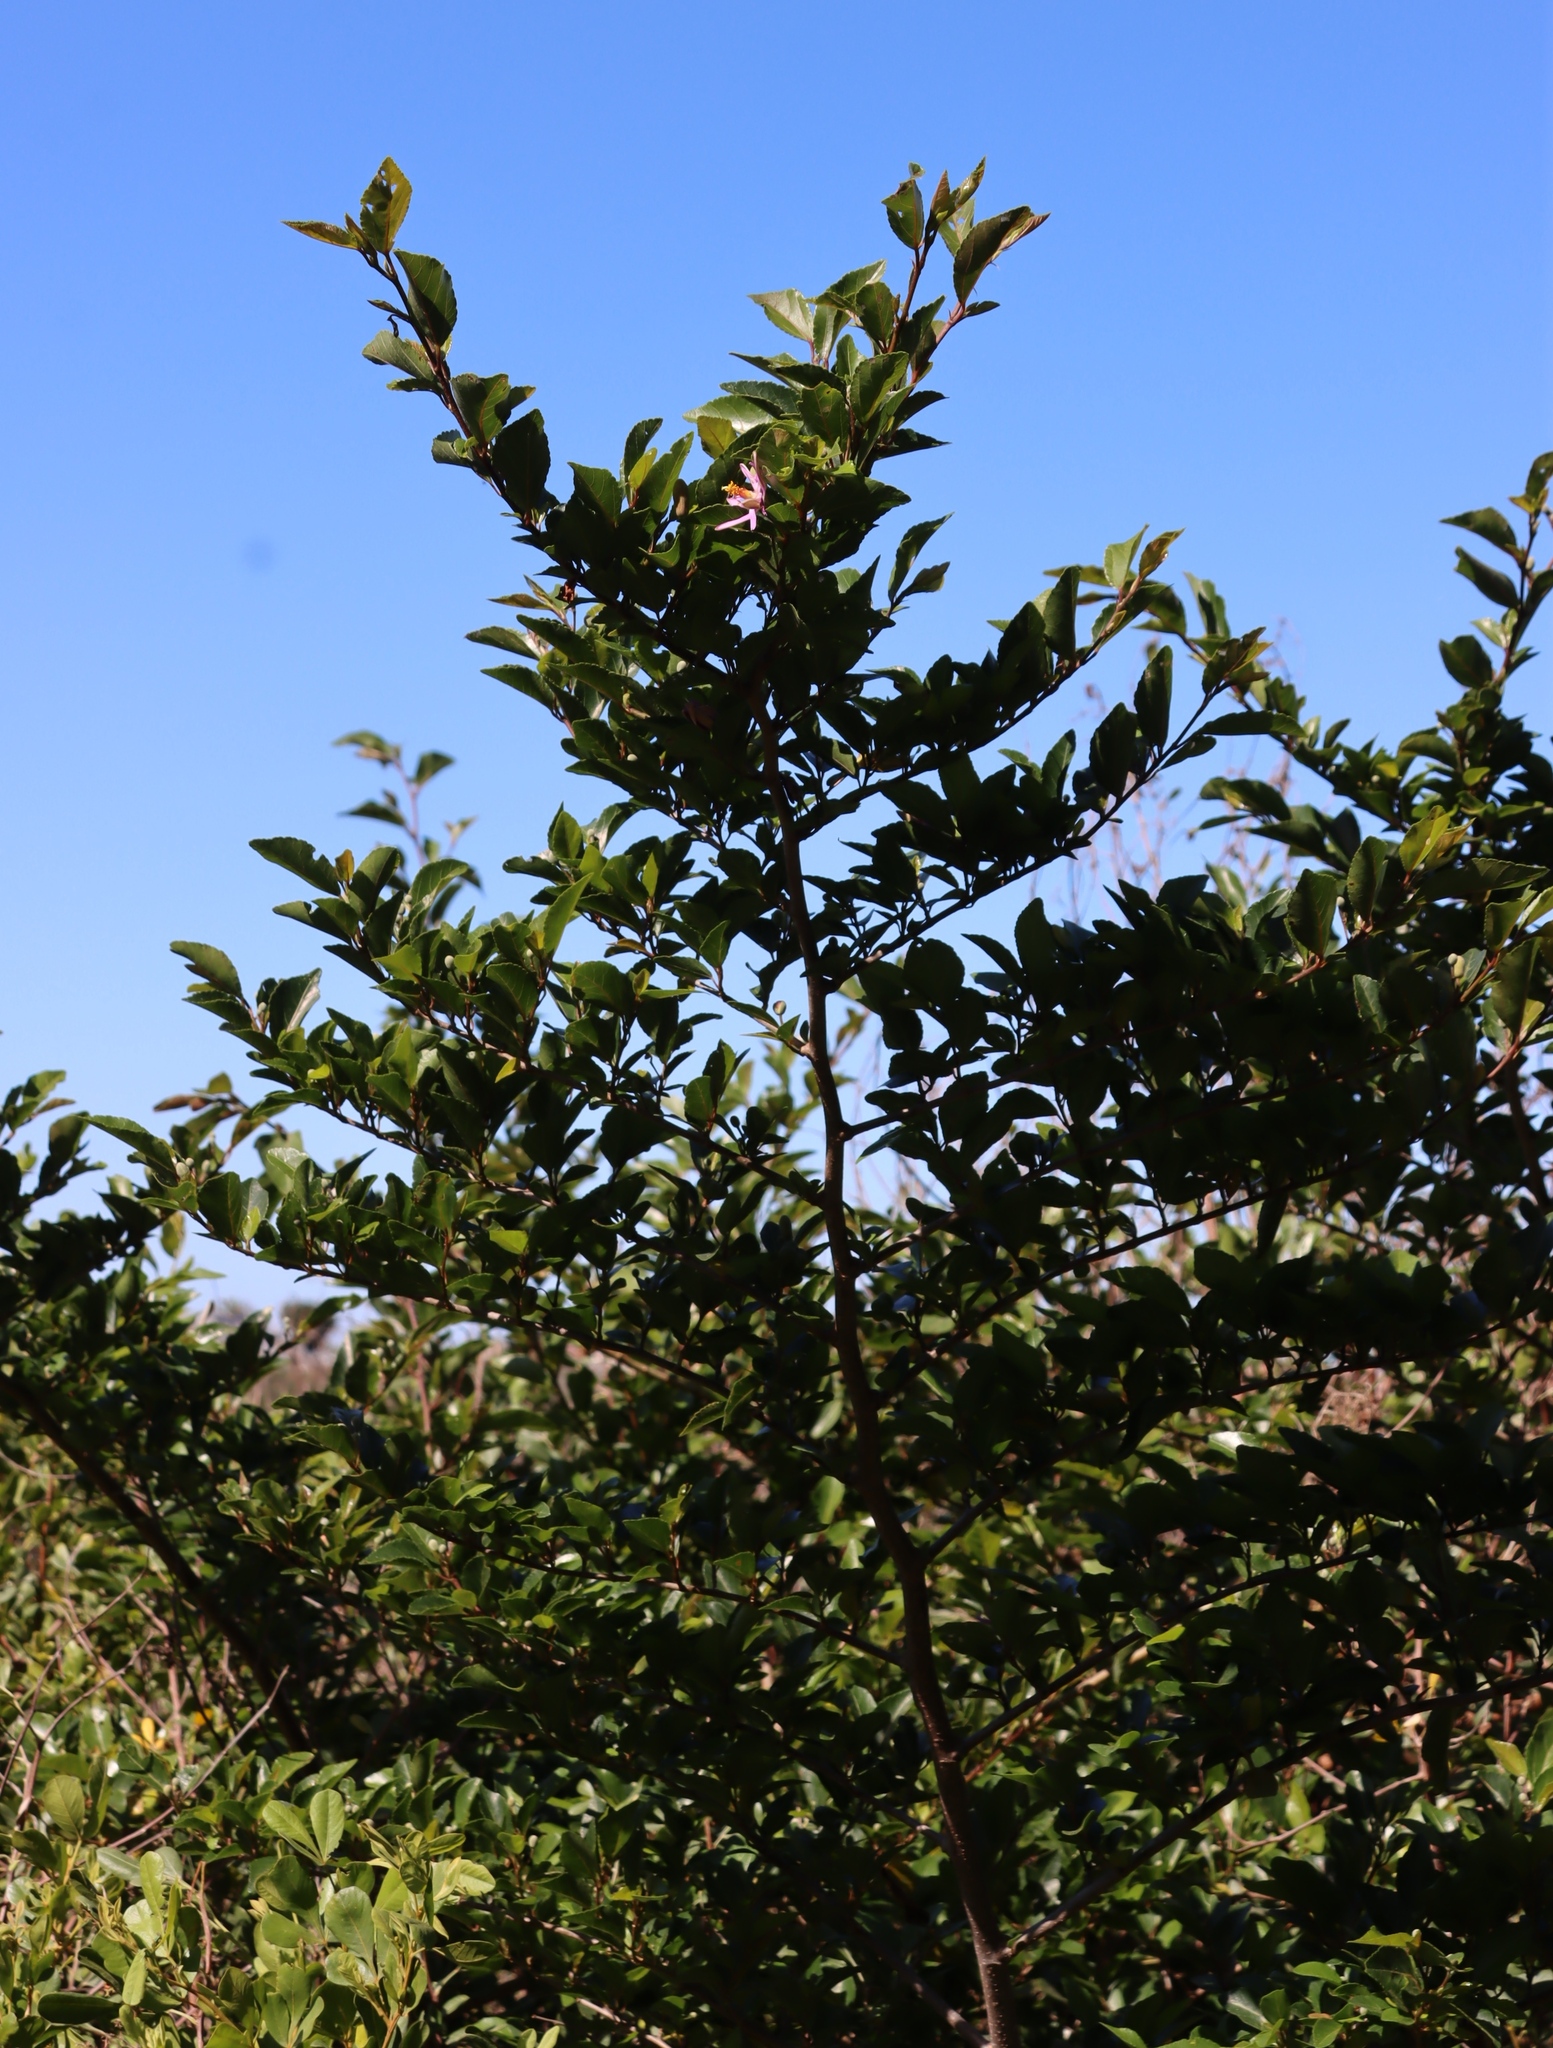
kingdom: Plantae
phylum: Tracheophyta
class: Magnoliopsida
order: Malvales
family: Malvaceae
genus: Grewia
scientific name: Grewia occidentalis
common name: Crossberry
